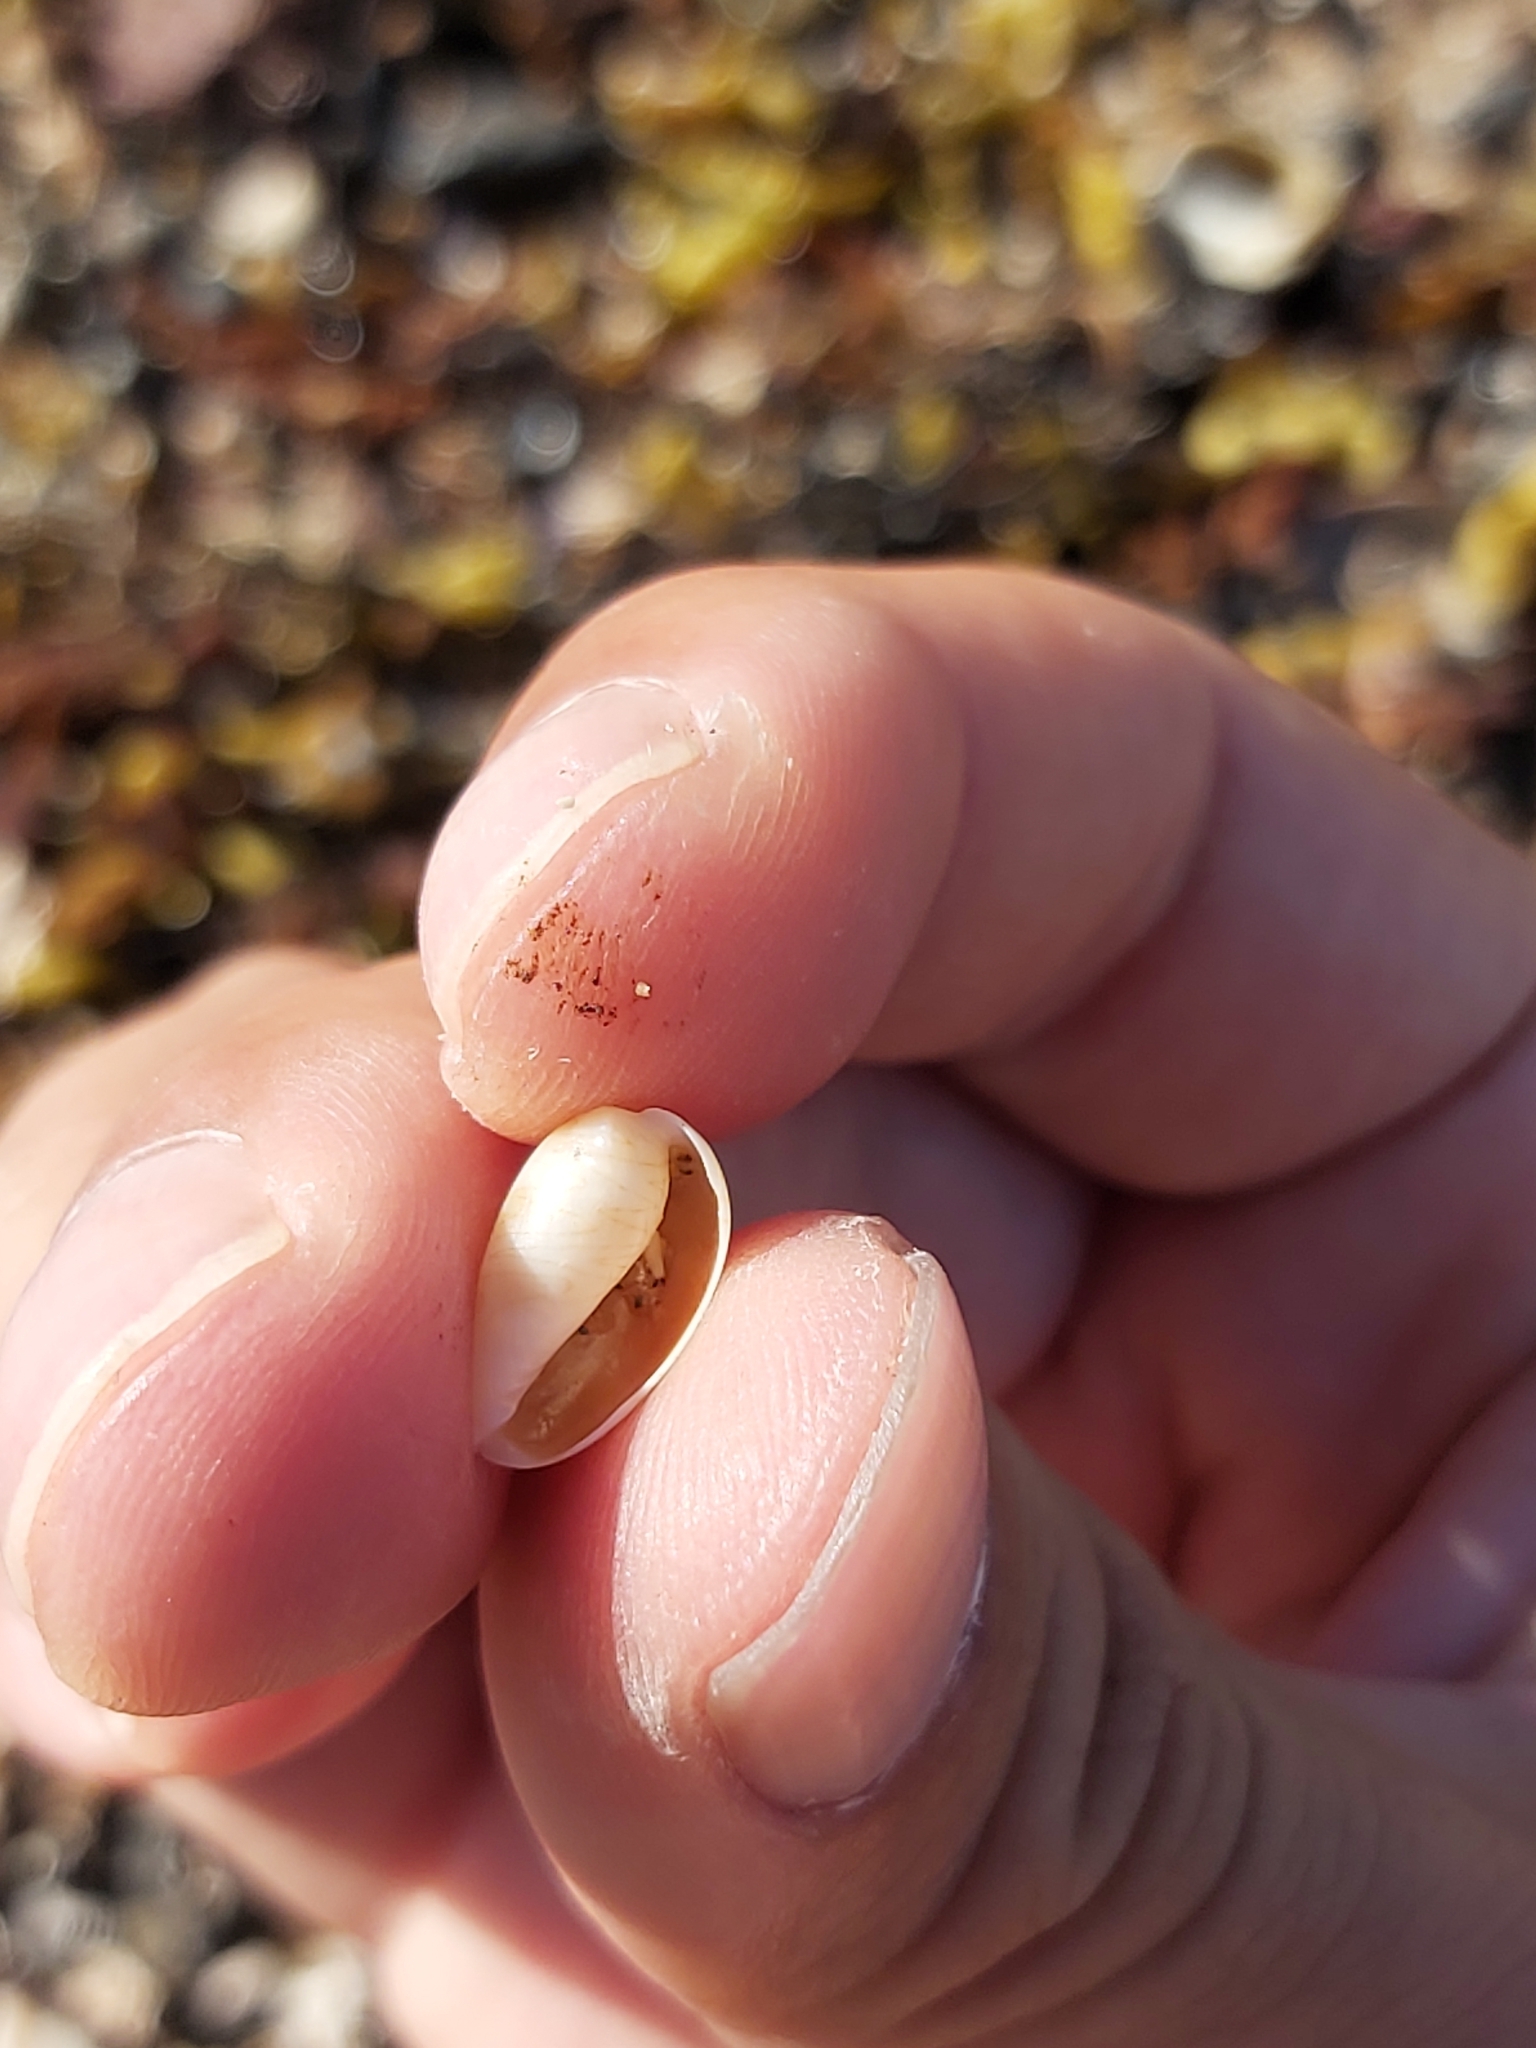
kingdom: Animalia
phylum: Mollusca
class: Gastropoda
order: Littorinimorpha
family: Cypraeidae
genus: Palmadusta
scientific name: Palmadusta clandestina
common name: Cowrie
